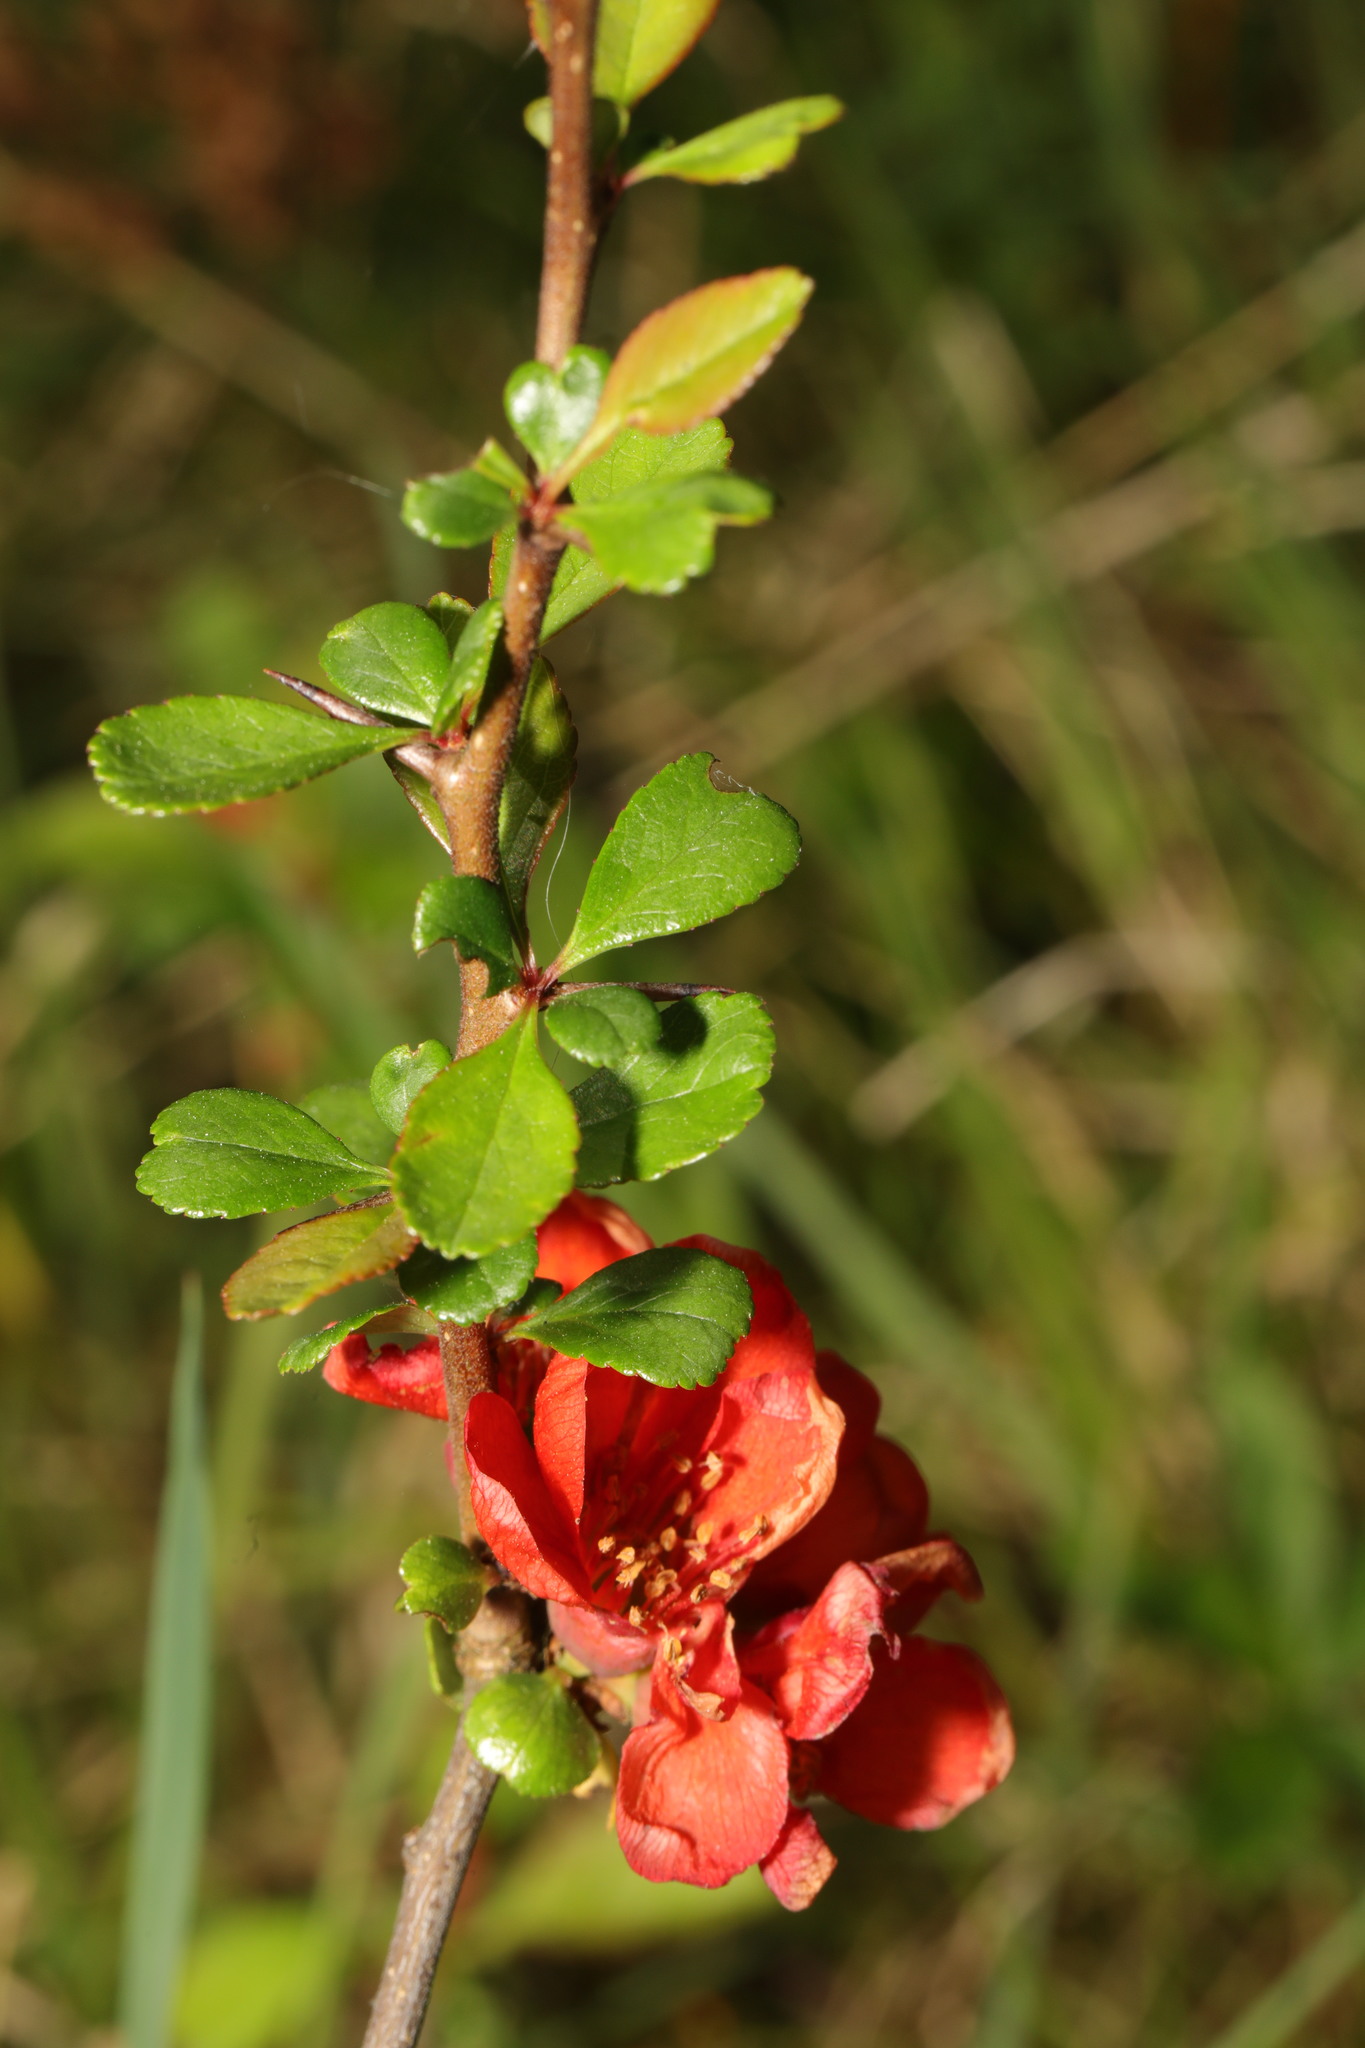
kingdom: Plantae
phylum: Tracheophyta
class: Magnoliopsida
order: Rosales
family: Rosaceae
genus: Chaenomeles
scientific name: Chaenomeles speciosa
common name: Japanese quince
